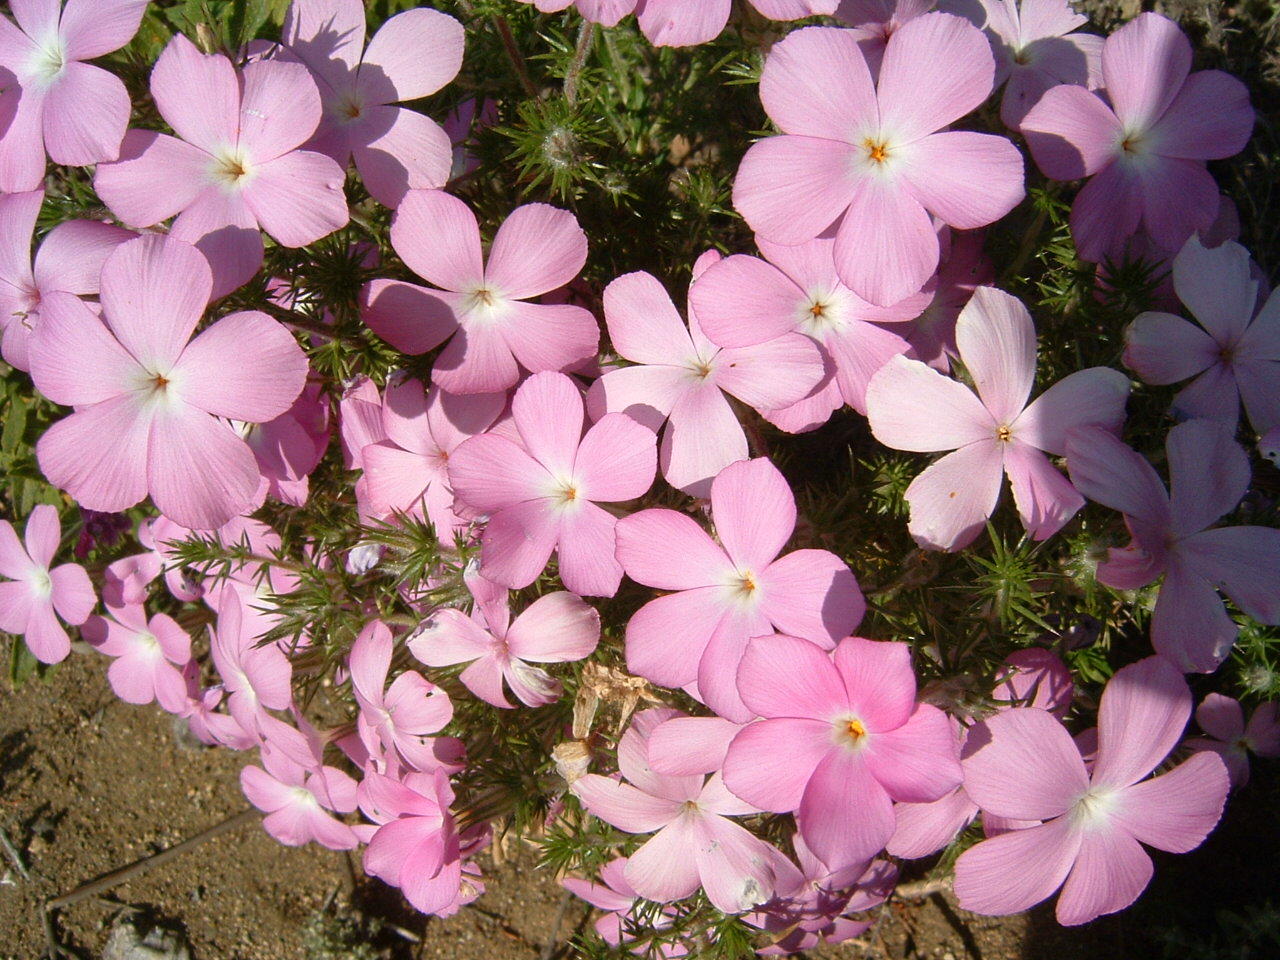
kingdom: Plantae
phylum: Tracheophyta
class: Magnoliopsida
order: Ericales
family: Polemoniaceae
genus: Linanthus
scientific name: Linanthus californicus
